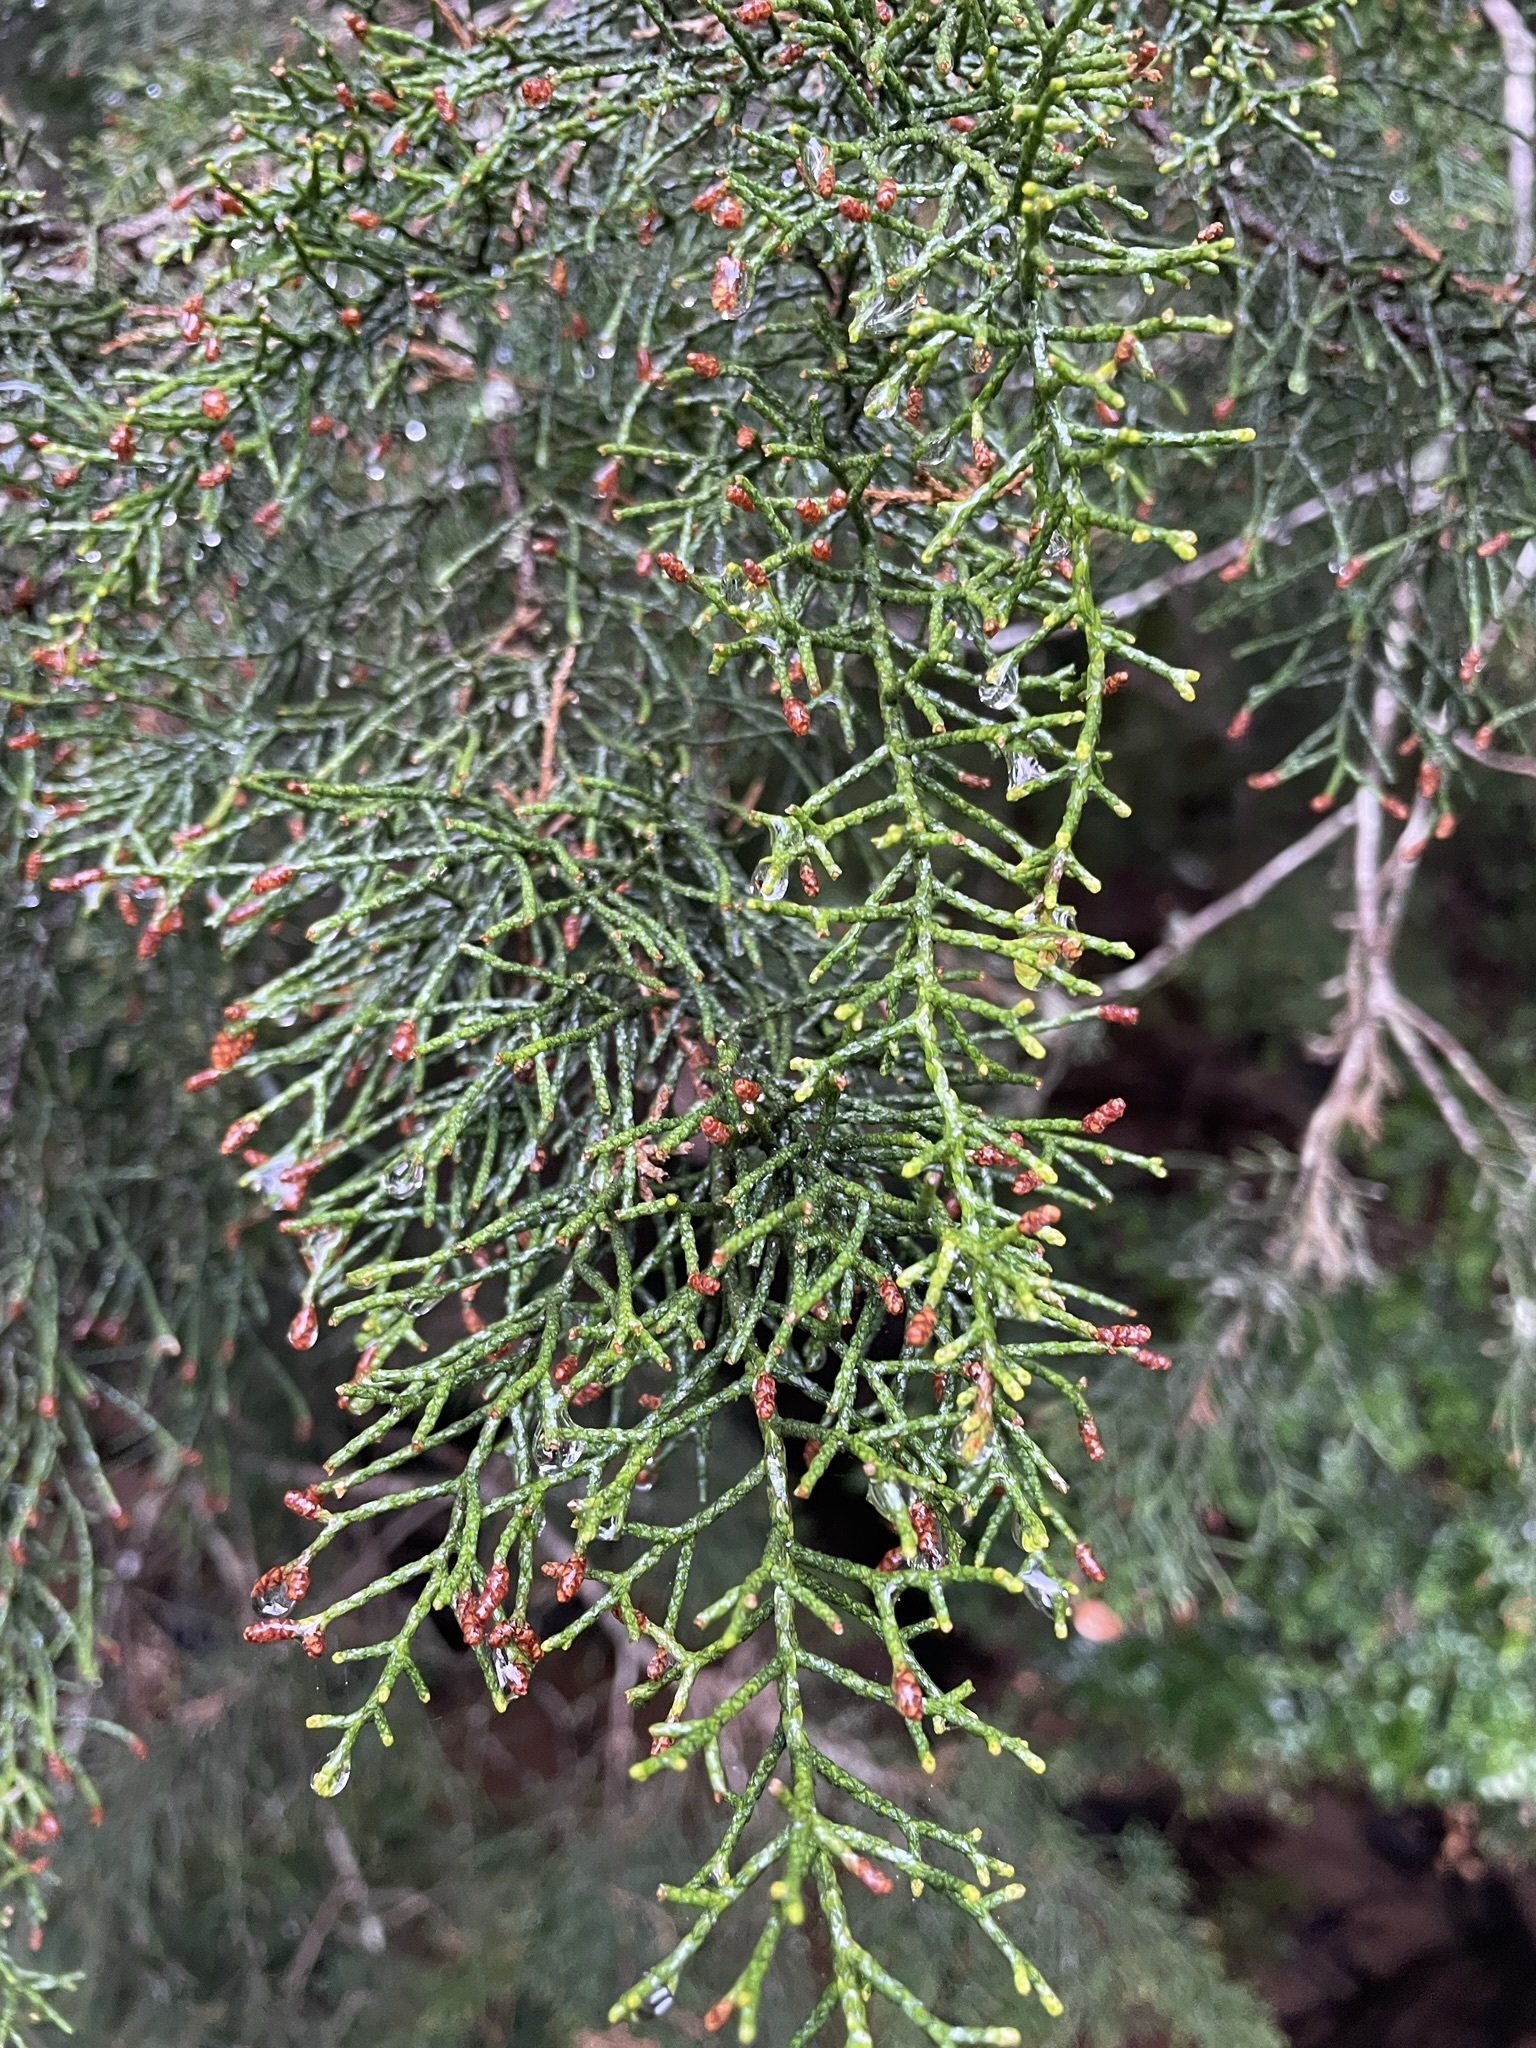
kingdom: Plantae
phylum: Tracheophyta
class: Pinopsida
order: Pinales
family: Podocarpaceae
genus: Lagarostrobos
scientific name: Lagarostrobos franklinii
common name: Huon pine
